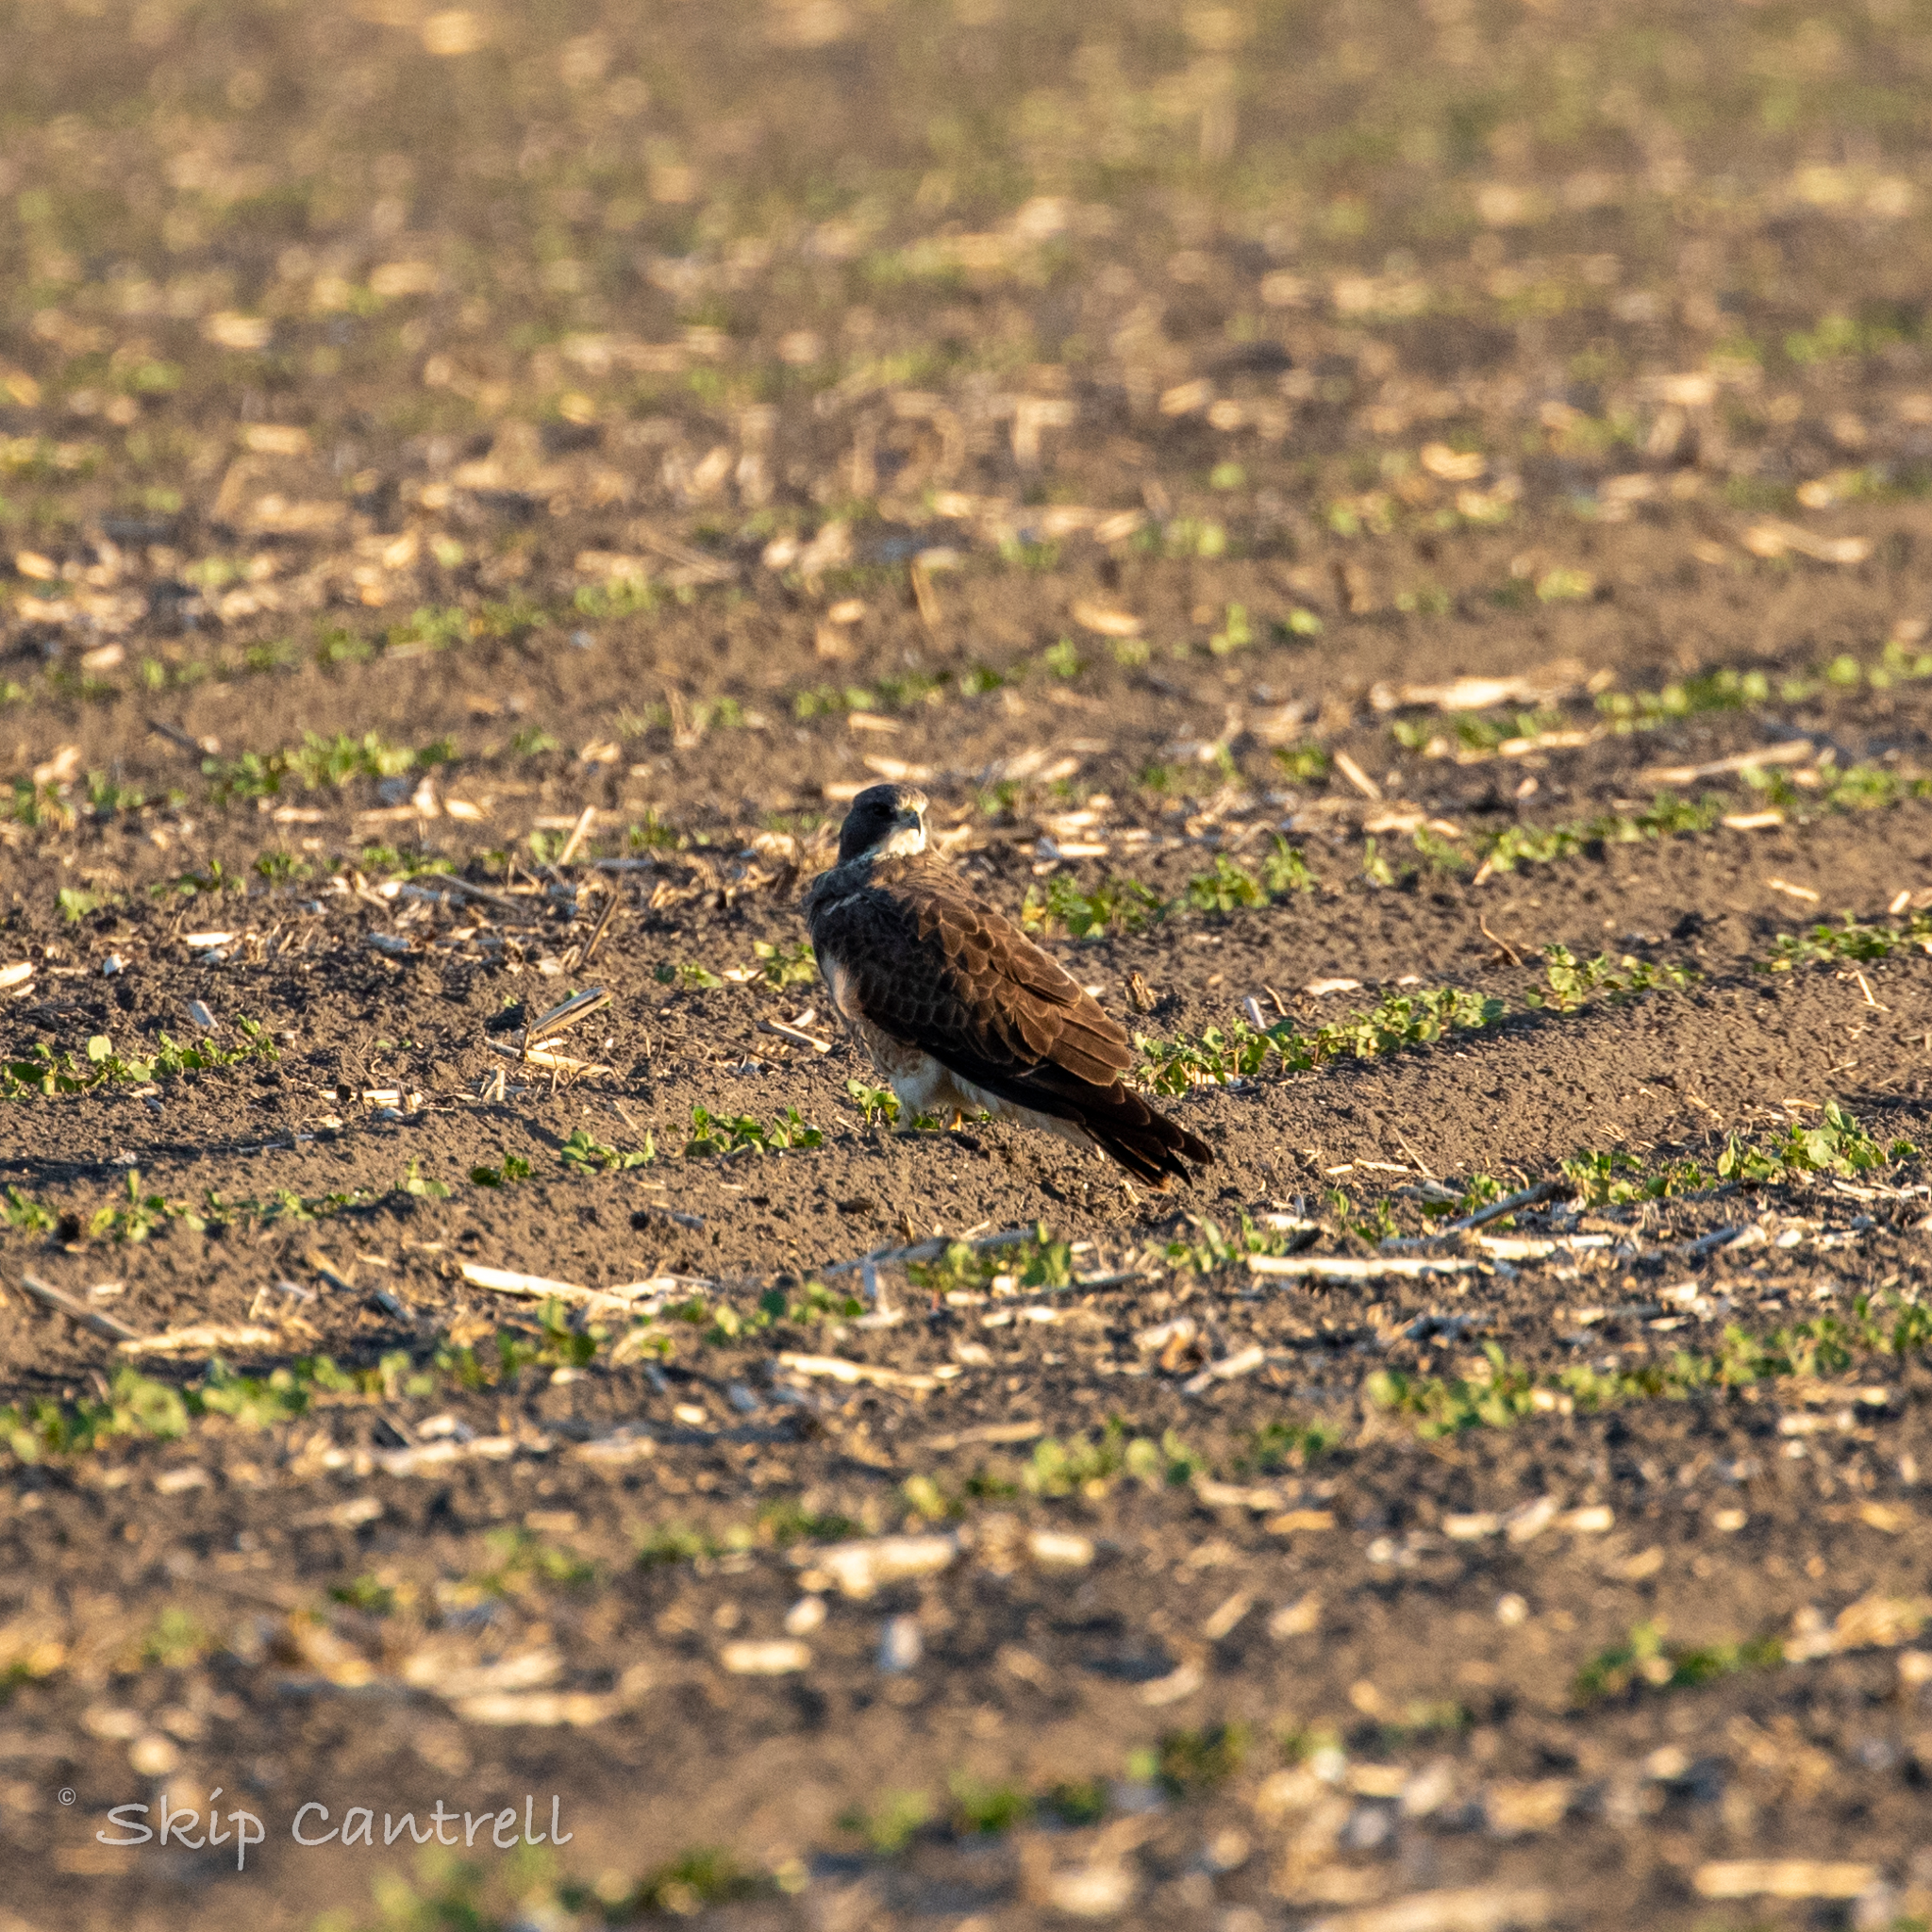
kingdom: Animalia
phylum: Chordata
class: Aves
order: Accipitriformes
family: Accipitridae
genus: Buteo
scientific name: Buteo swainsoni
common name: Swainson's hawk
